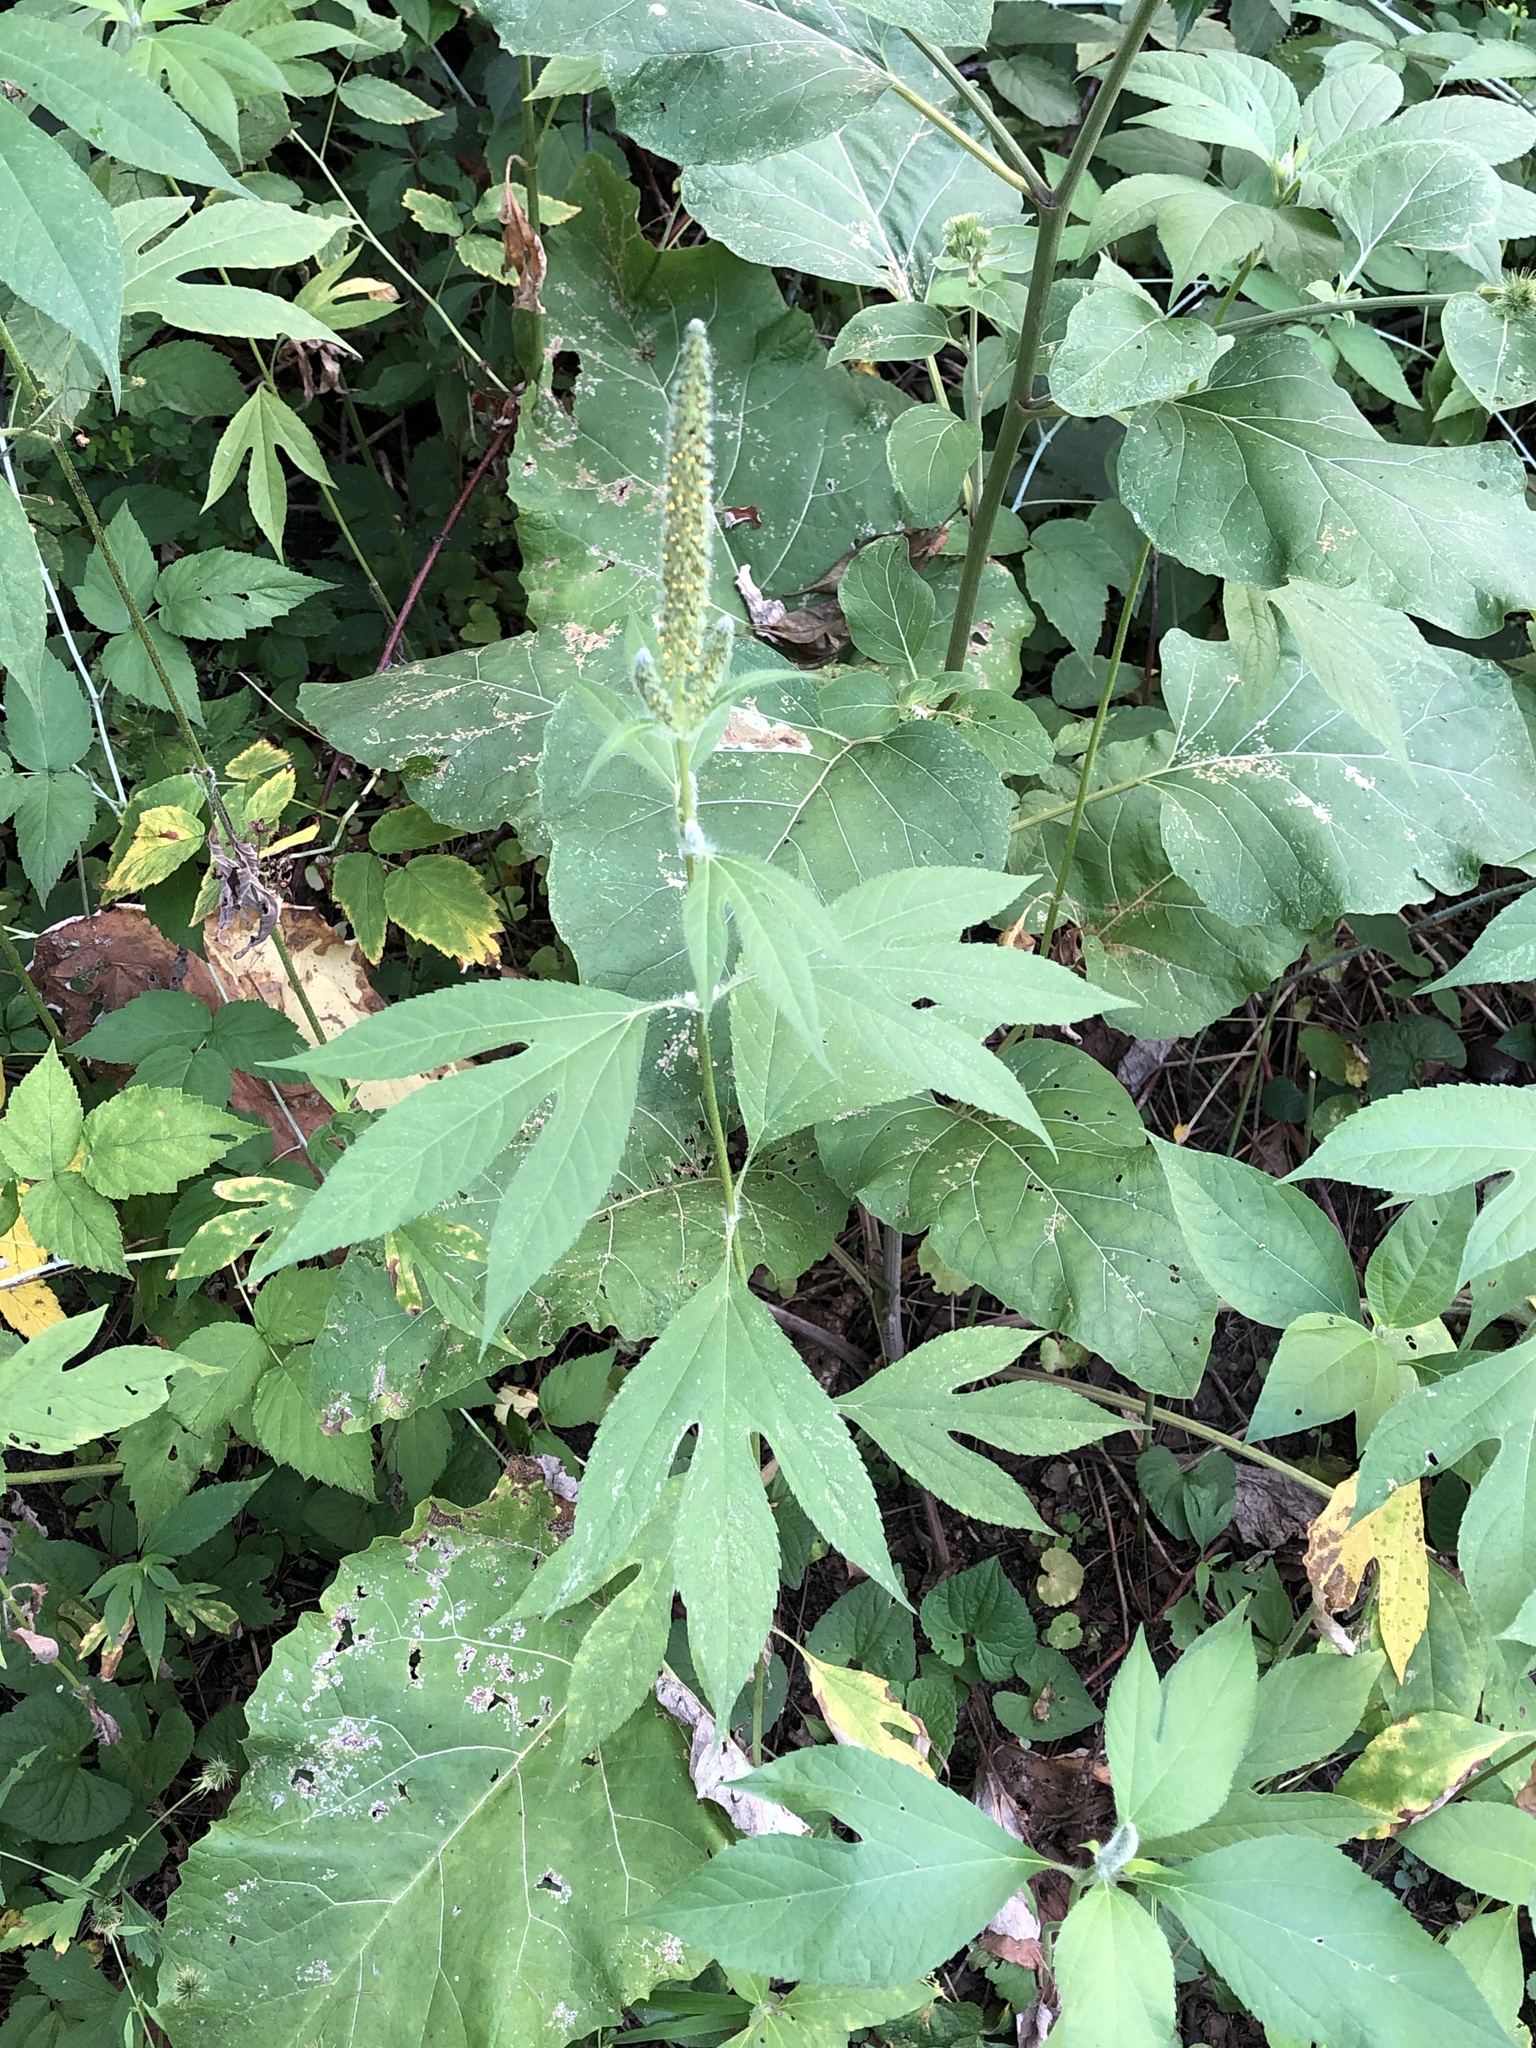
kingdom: Plantae
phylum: Tracheophyta
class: Magnoliopsida
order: Asterales
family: Asteraceae
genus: Ambrosia
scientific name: Ambrosia trifida
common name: Giant ragweed
